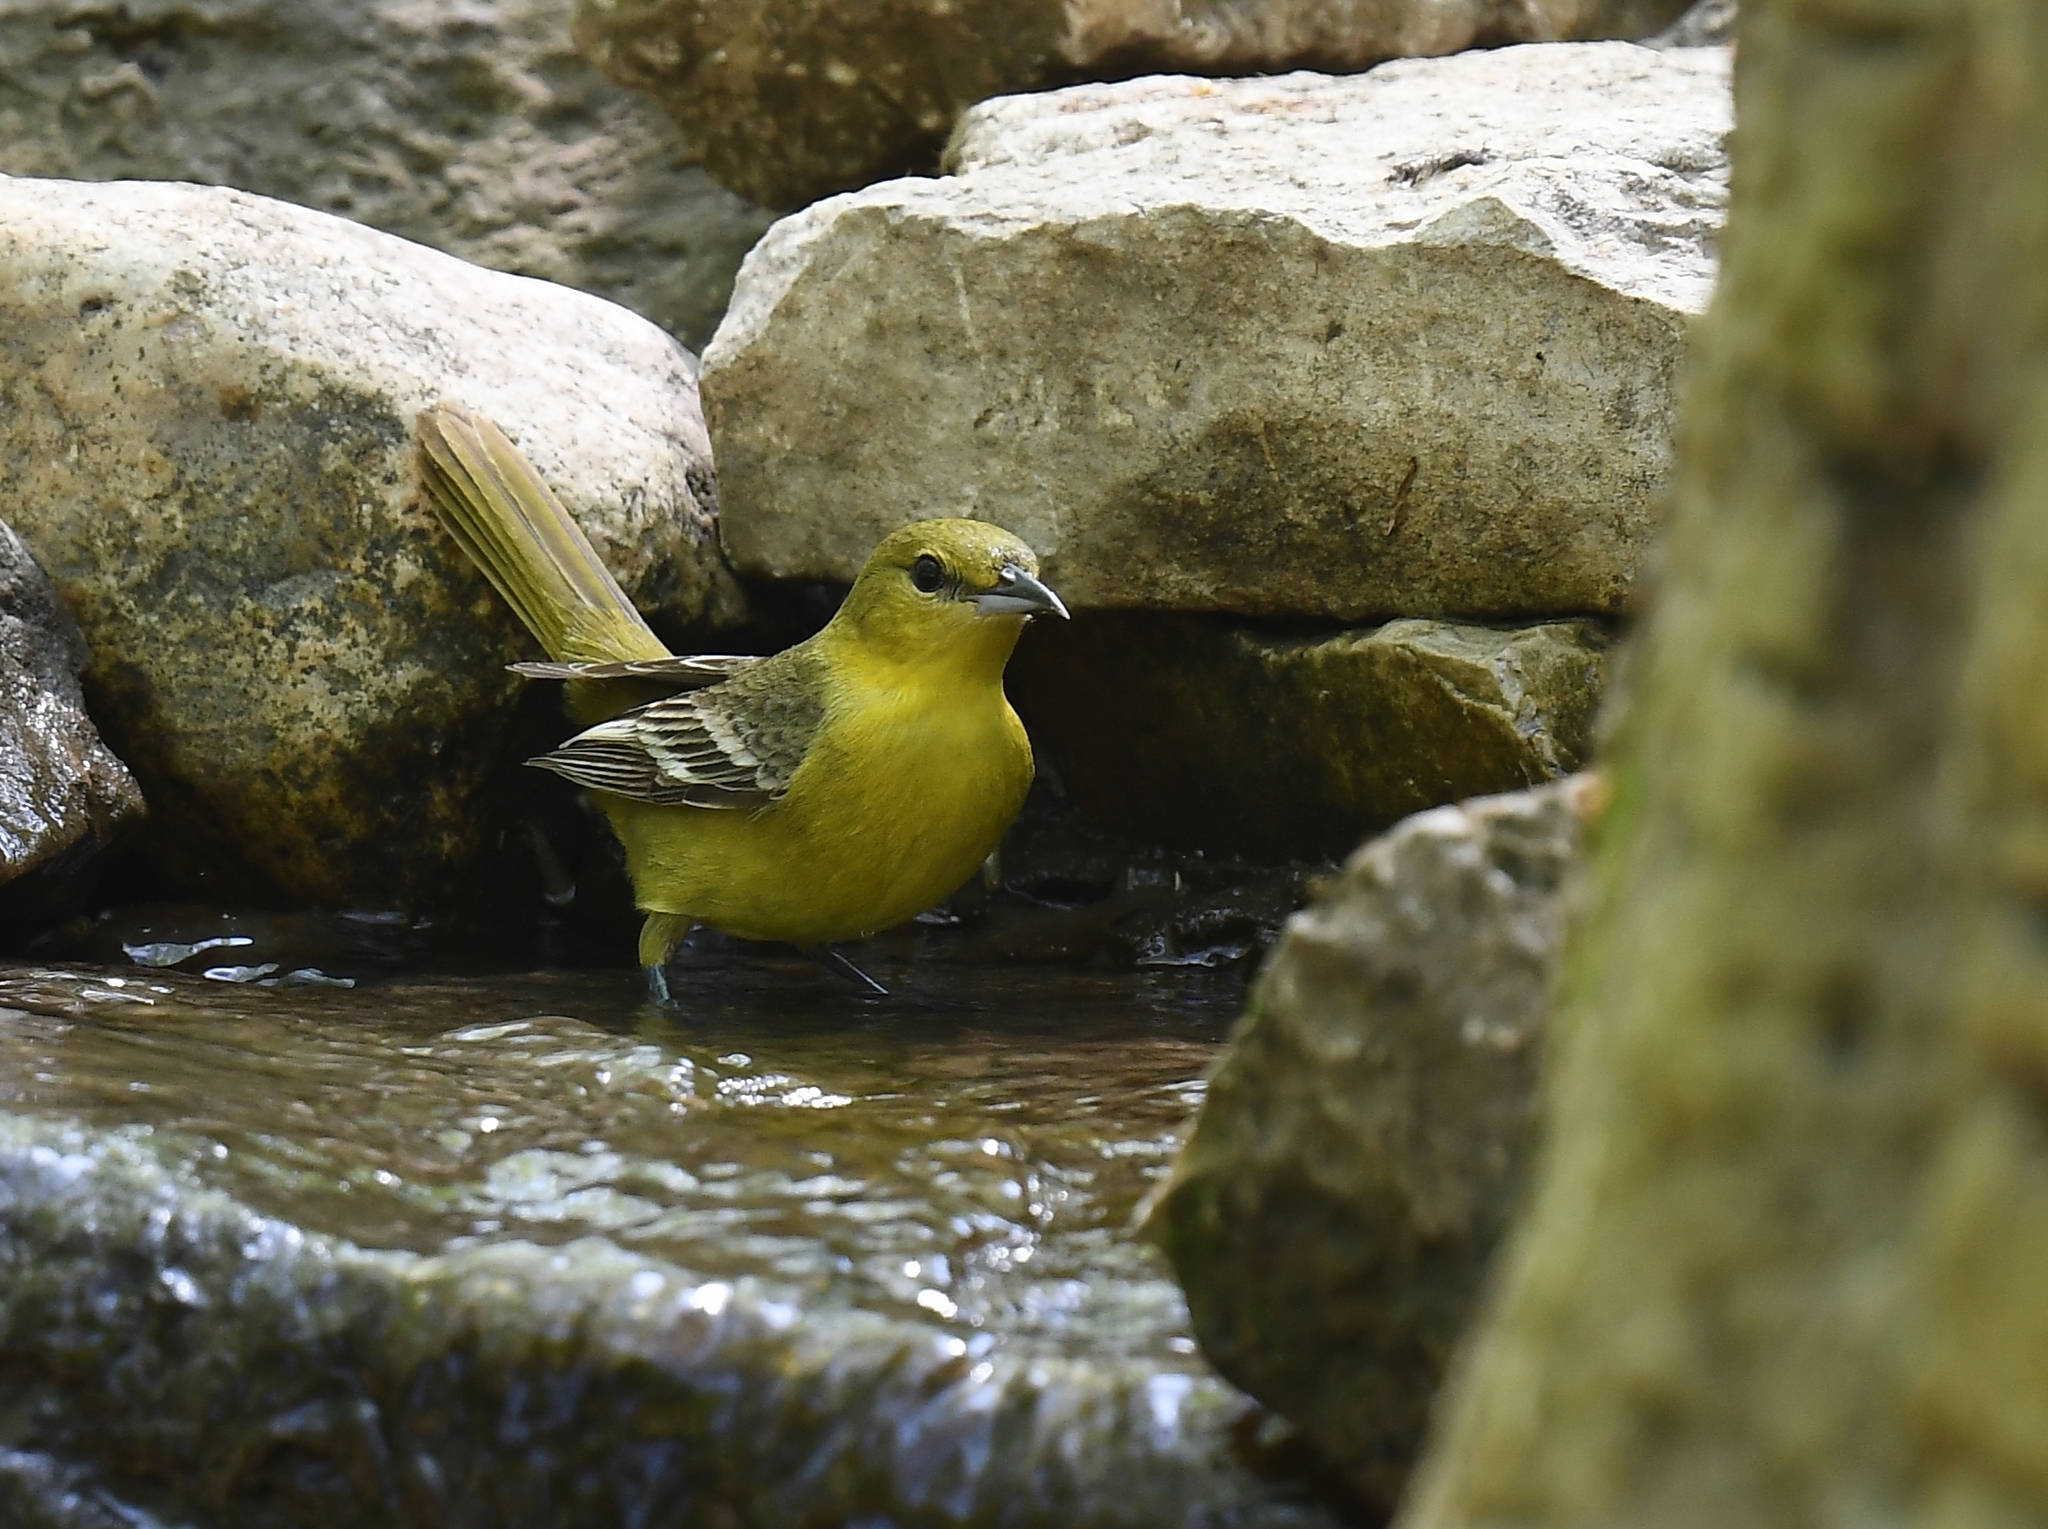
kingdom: Animalia
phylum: Chordata
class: Aves
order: Passeriformes
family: Icteridae
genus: Icterus
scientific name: Icterus spurius
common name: Orchard oriole
